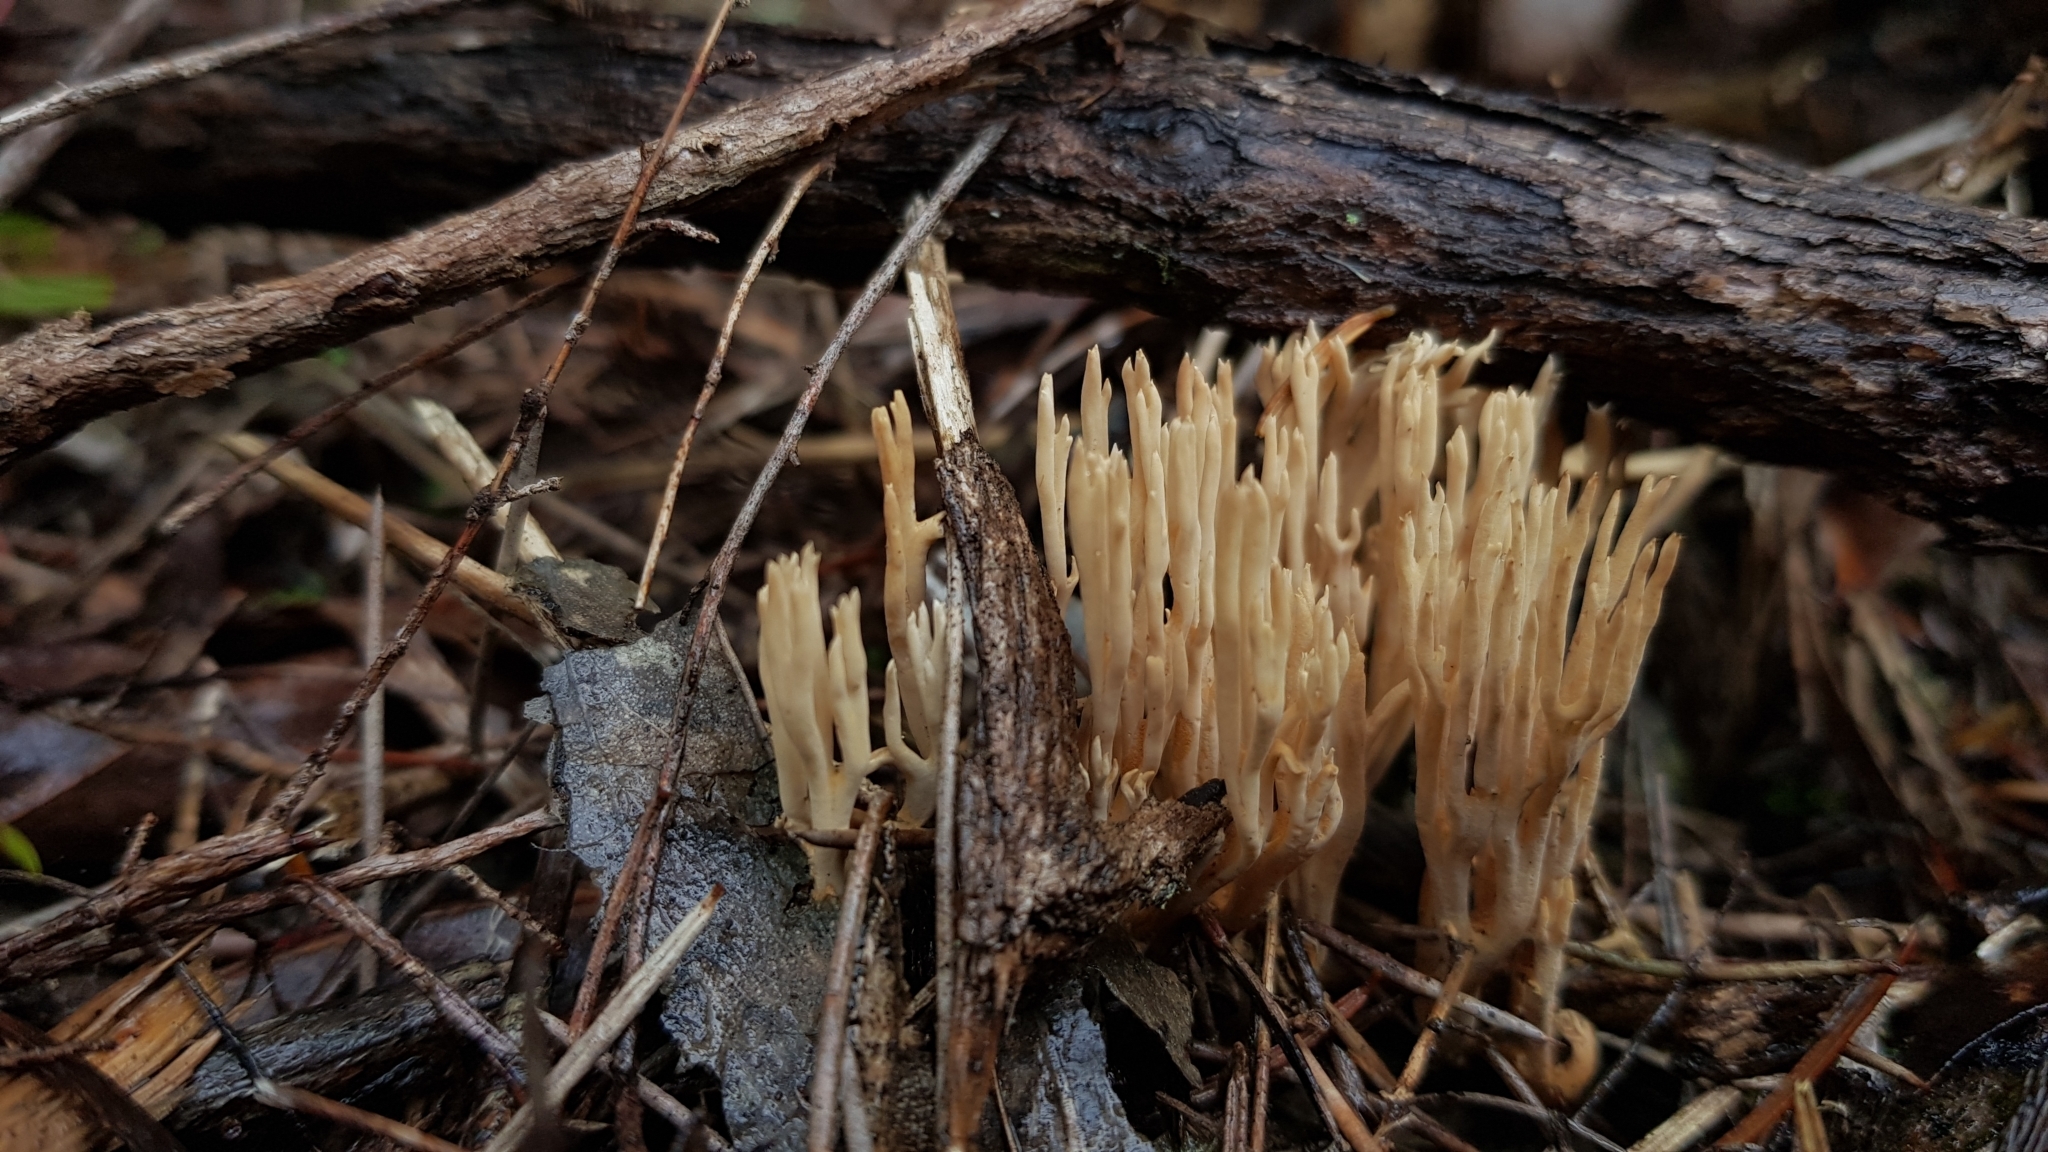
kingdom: Fungi
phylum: Basidiomycota
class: Agaricomycetes
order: Gomphales
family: Gomphaceae
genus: Ramaria
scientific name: Ramaria filicicola
